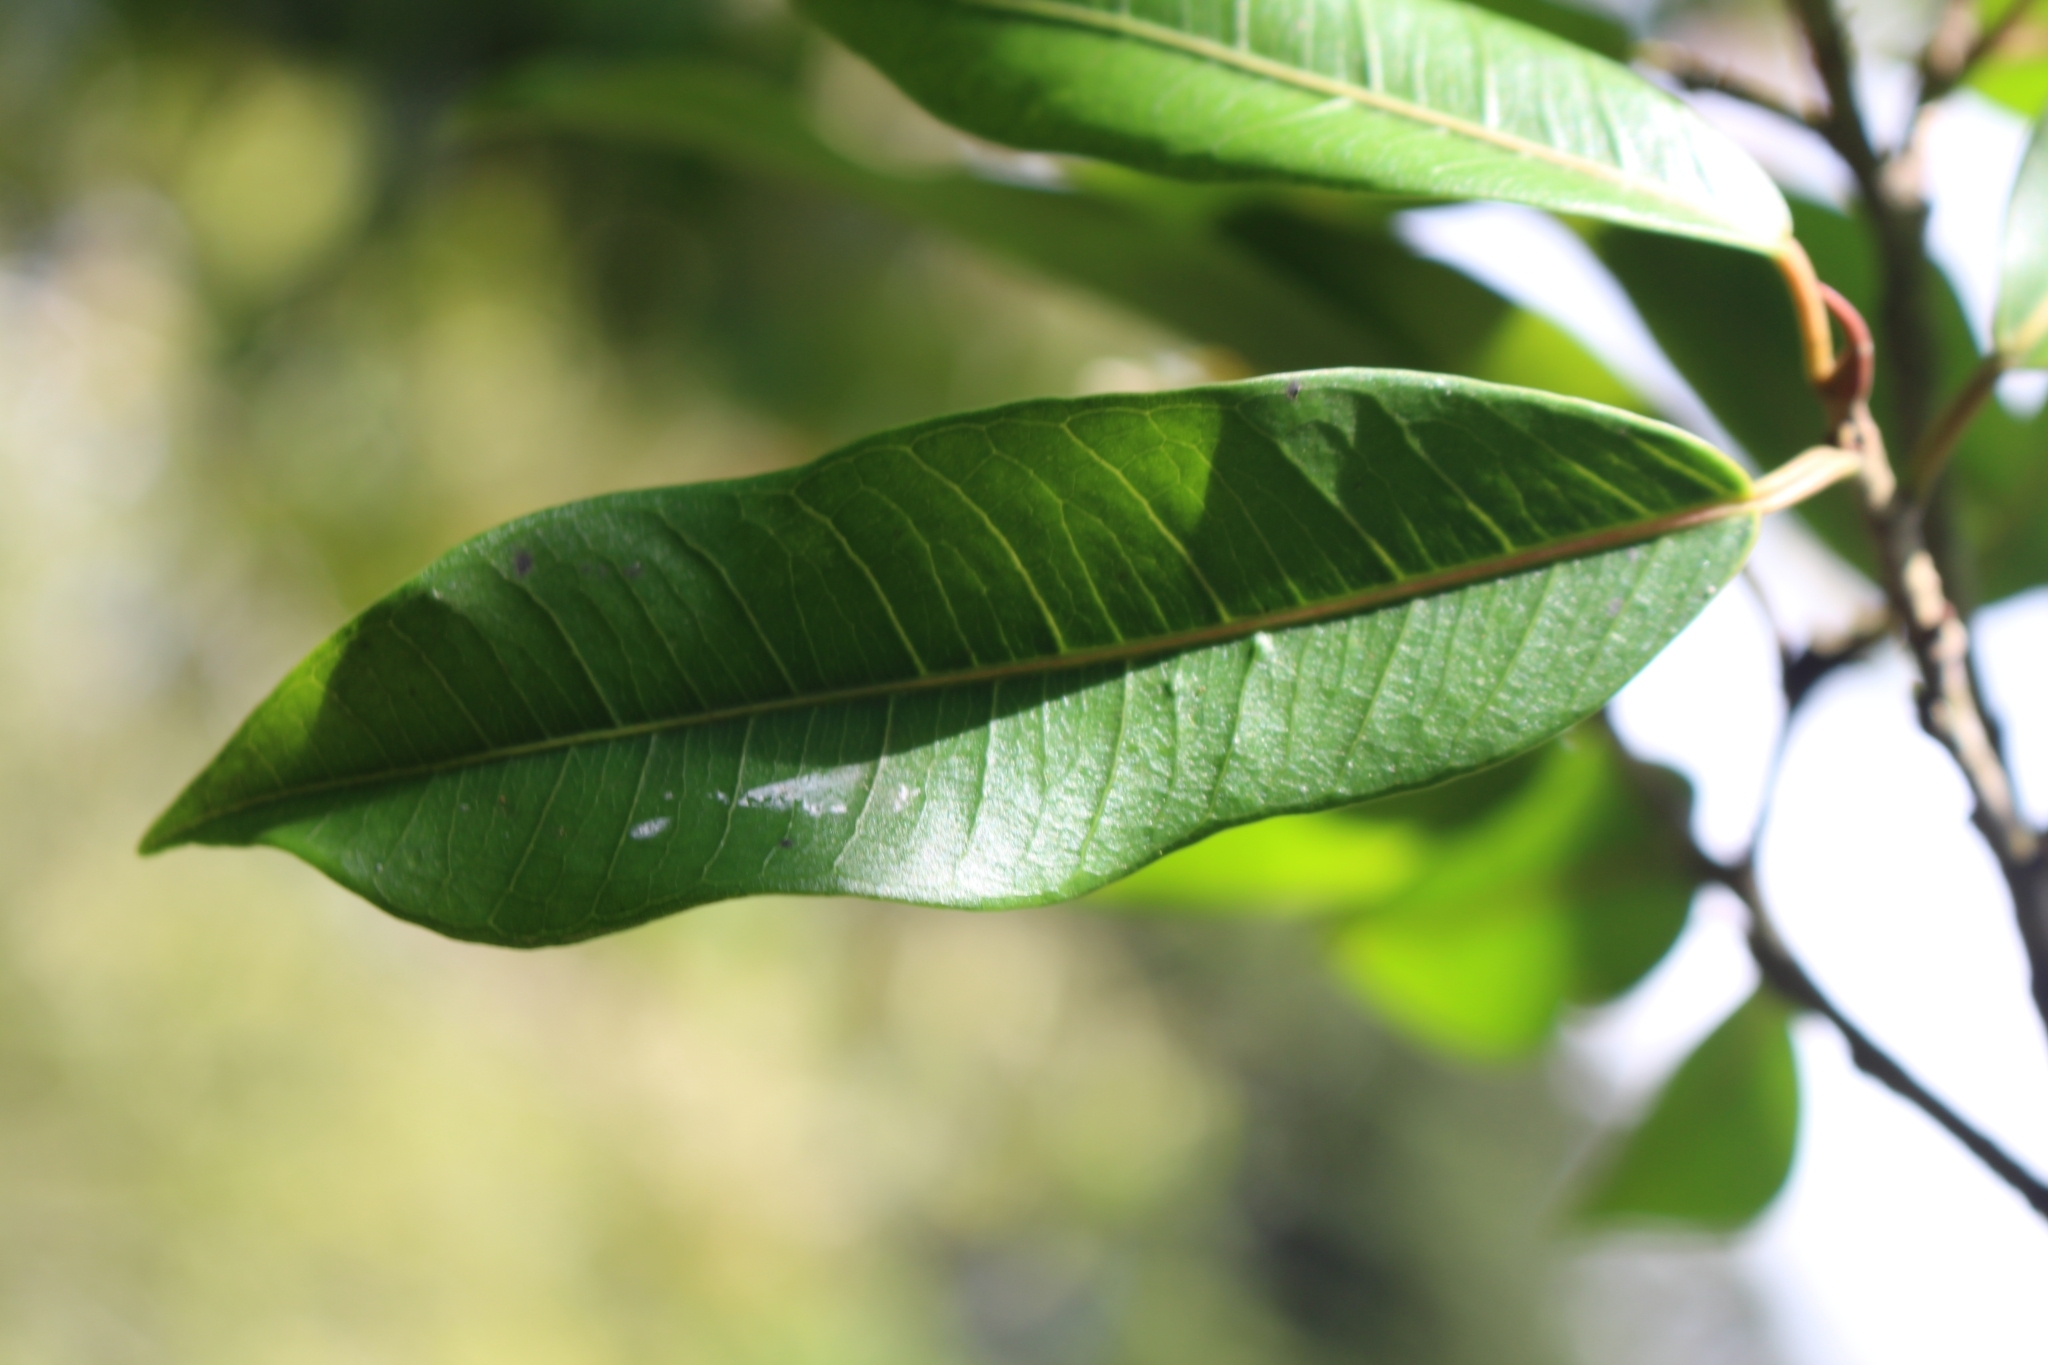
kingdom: Plantae
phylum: Tracheophyta
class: Magnoliopsida
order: Rosales
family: Moraceae
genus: Ficus
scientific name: Ficus pertusa
